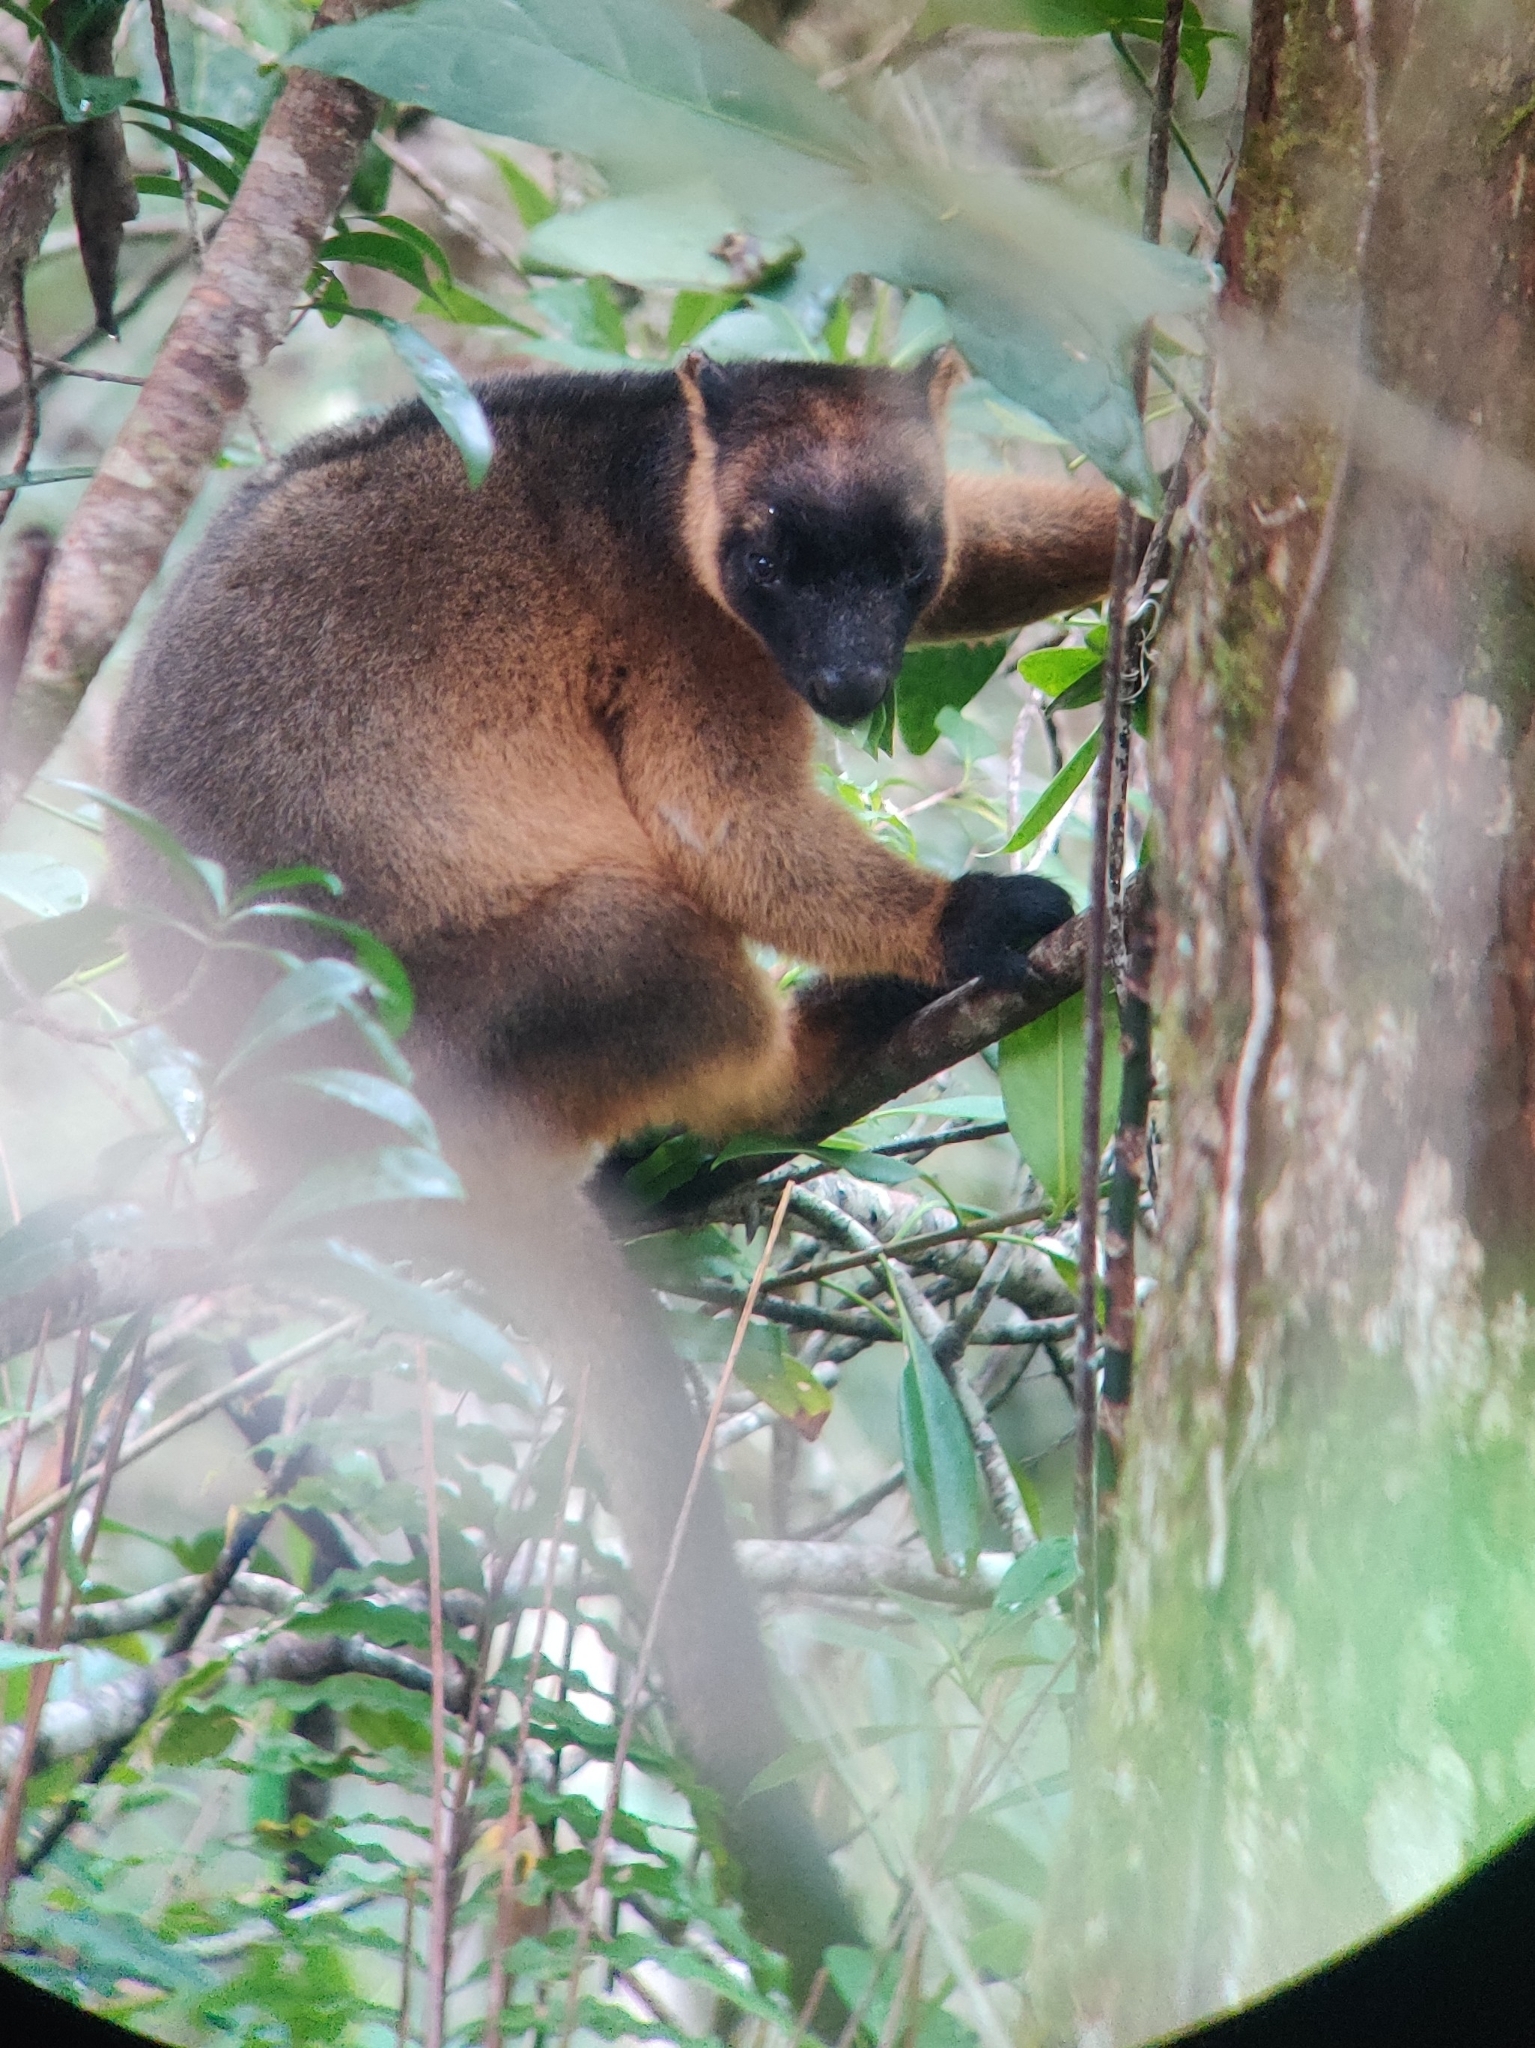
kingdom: Animalia
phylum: Chordata
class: Mammalia
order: Diprotodontia
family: Macropodidae
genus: Dendrolagus
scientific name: Dendrolagus lumholtzi
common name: Lumholtz's tree kangaroo
